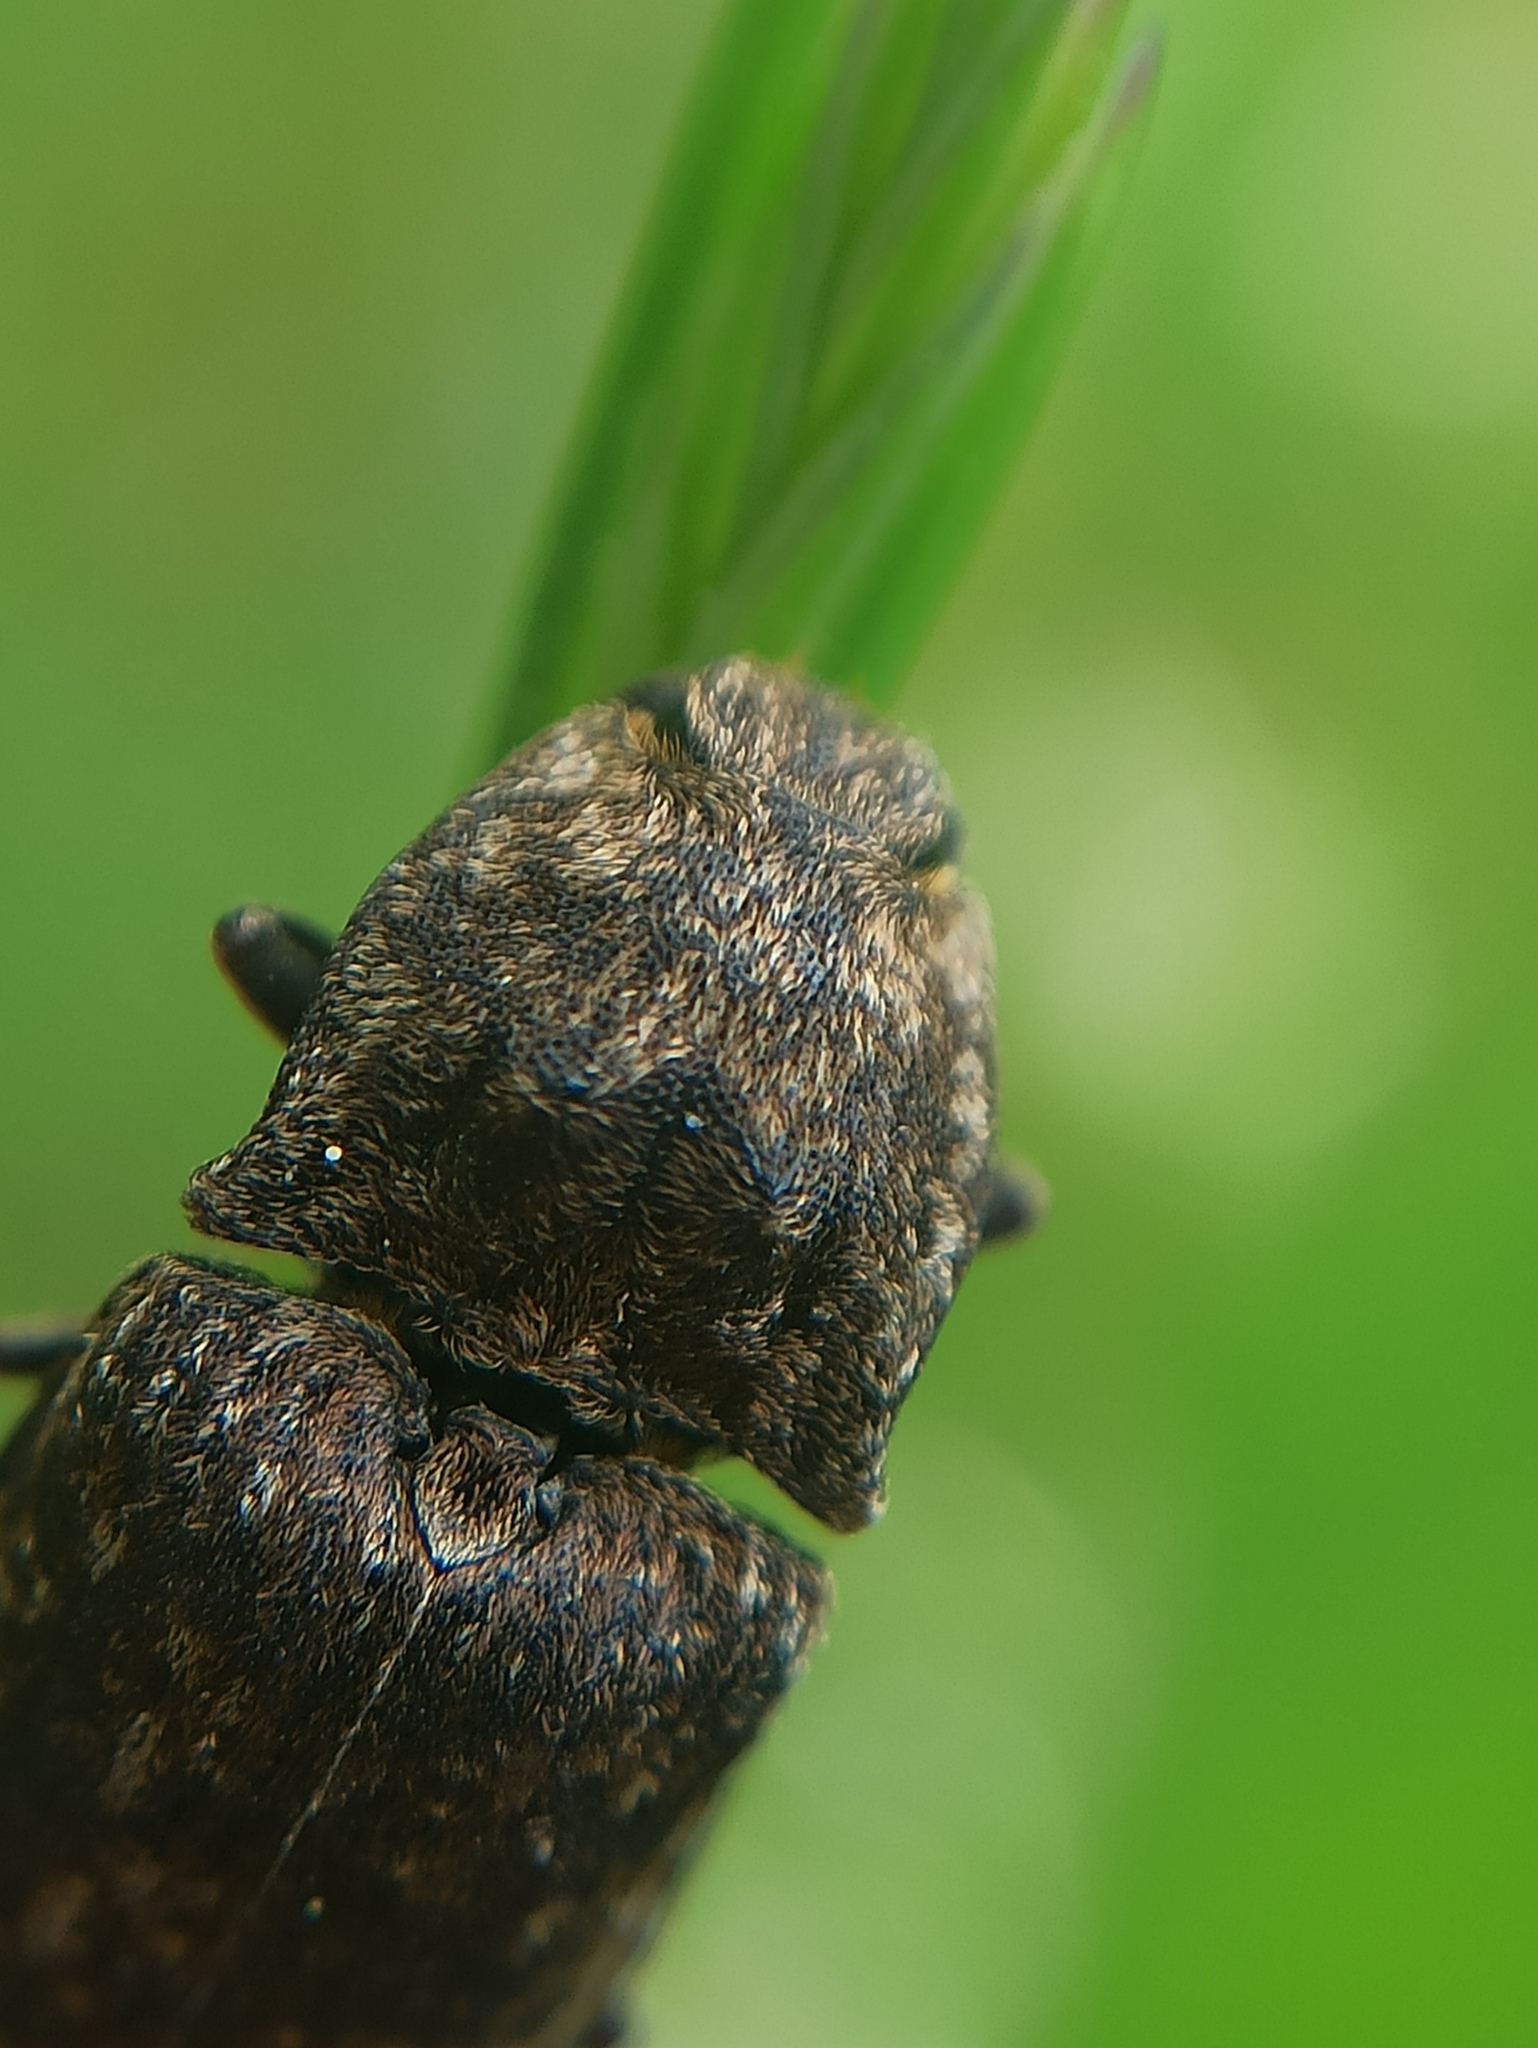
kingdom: Animalia
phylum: Arthropoda
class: Insecta
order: Coleoptera
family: Elateridae
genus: Agrypnus
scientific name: Agrypnus murinus
